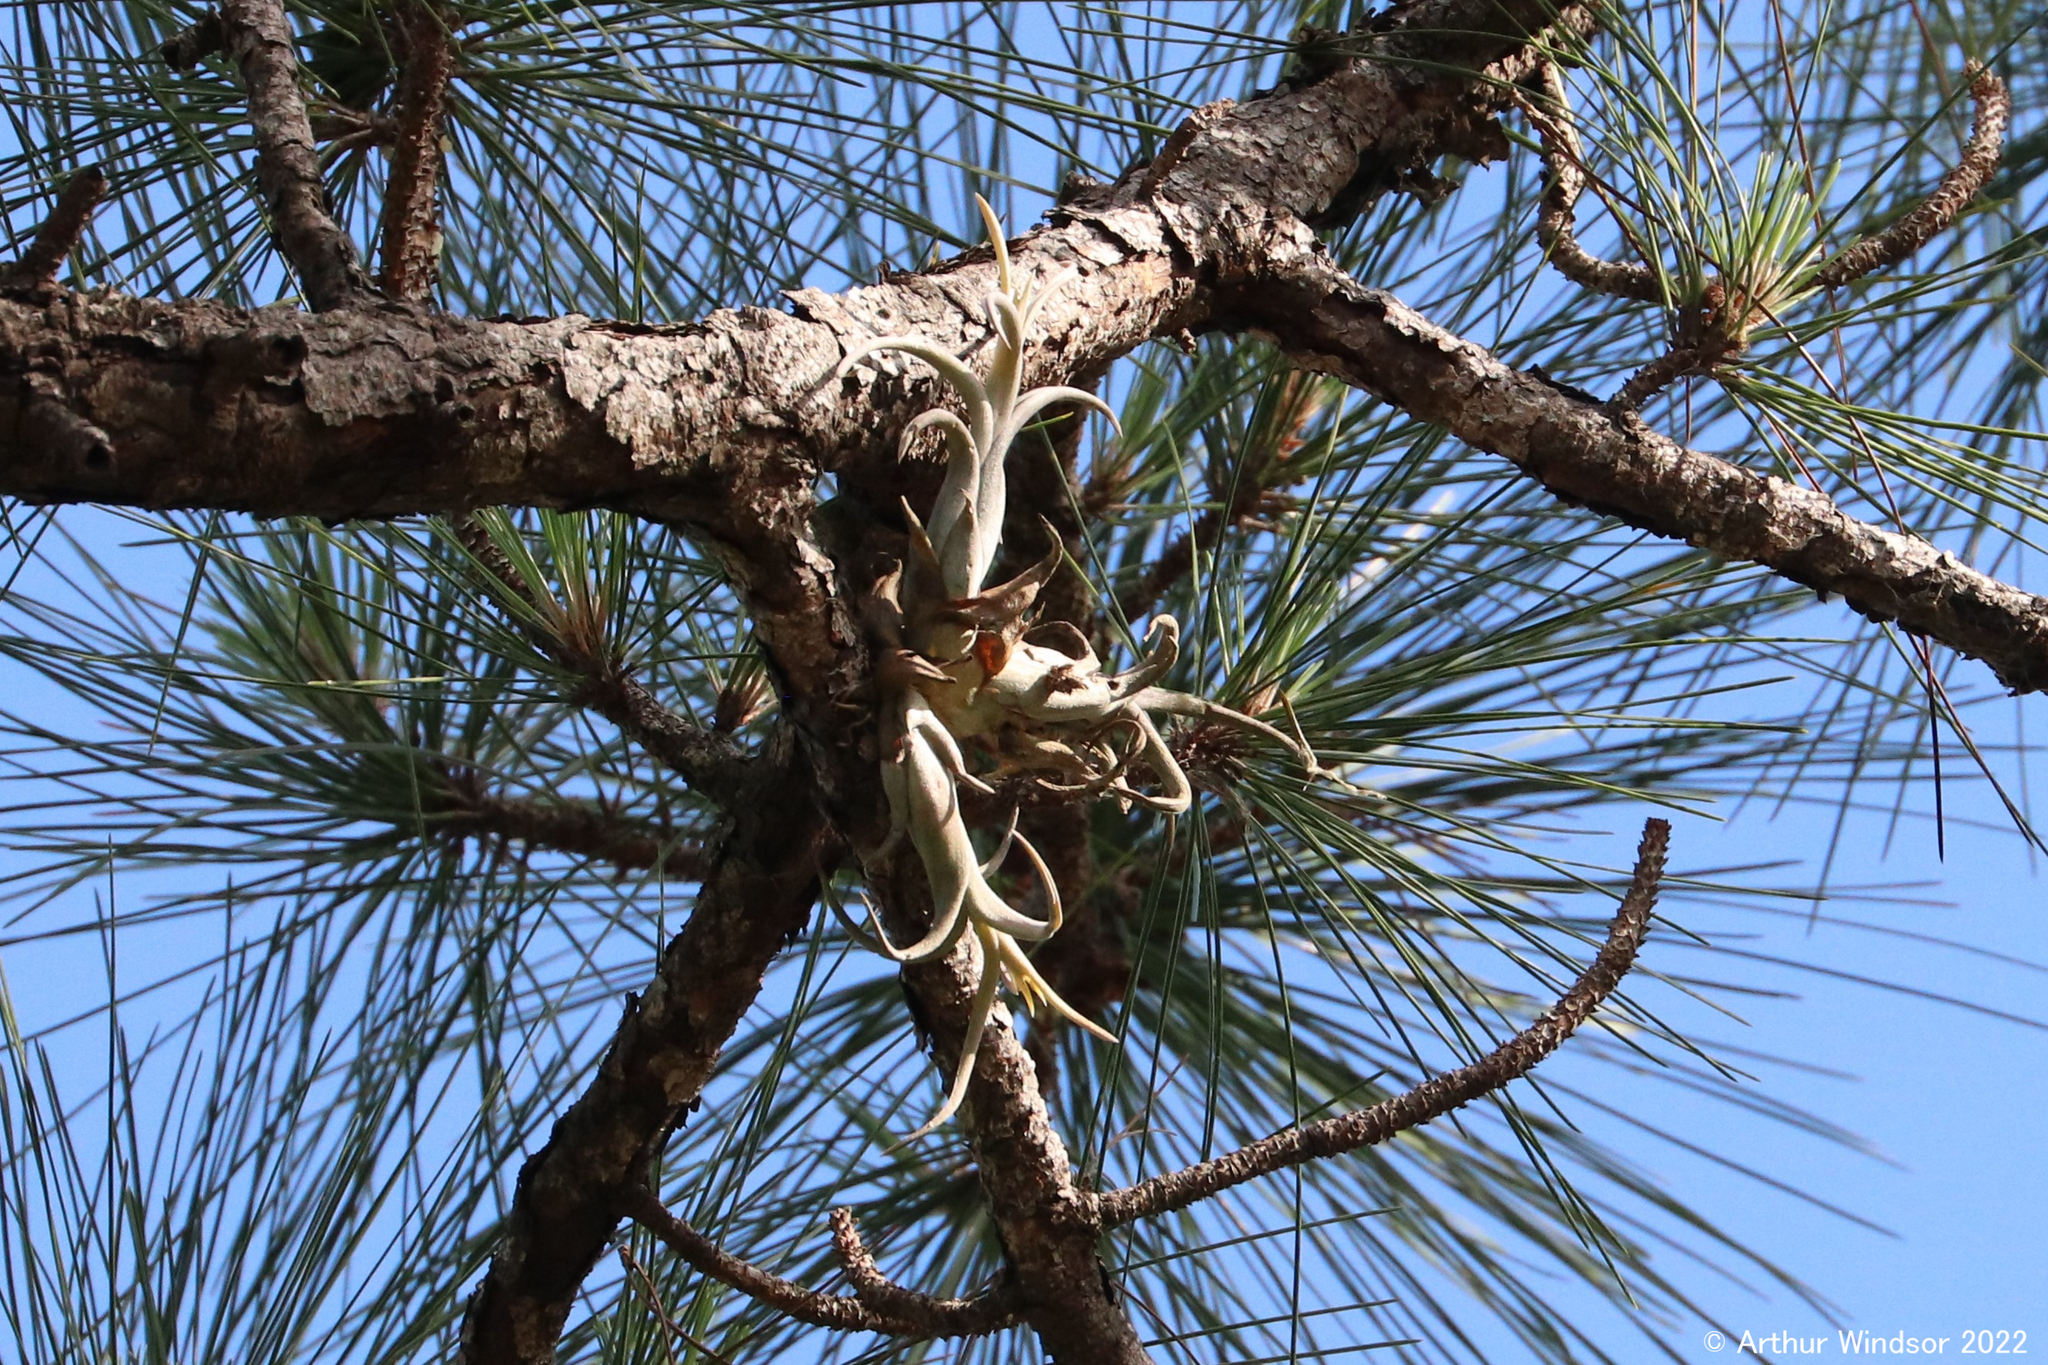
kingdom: Plantae
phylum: Tracheophyta
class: Liliopsida
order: Poales
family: Bromeliaceae
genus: Tillandsia
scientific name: Tillandsia paucifolia
